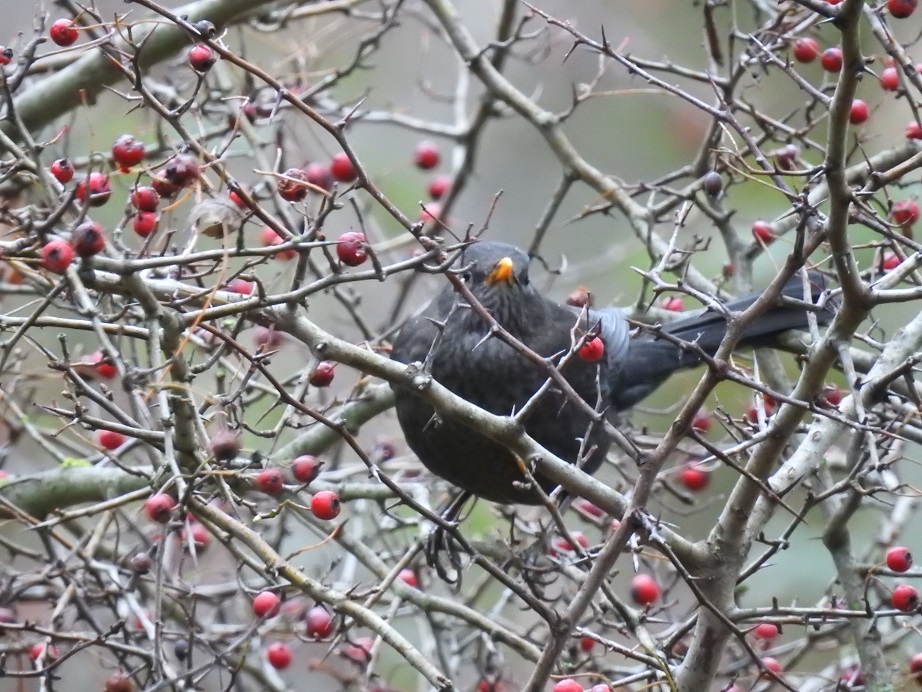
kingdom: Animalia
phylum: Chordata
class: Aves
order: Passeriformes
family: Turdidae
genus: Turdus
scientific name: Turdus merula
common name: Common blackbird
